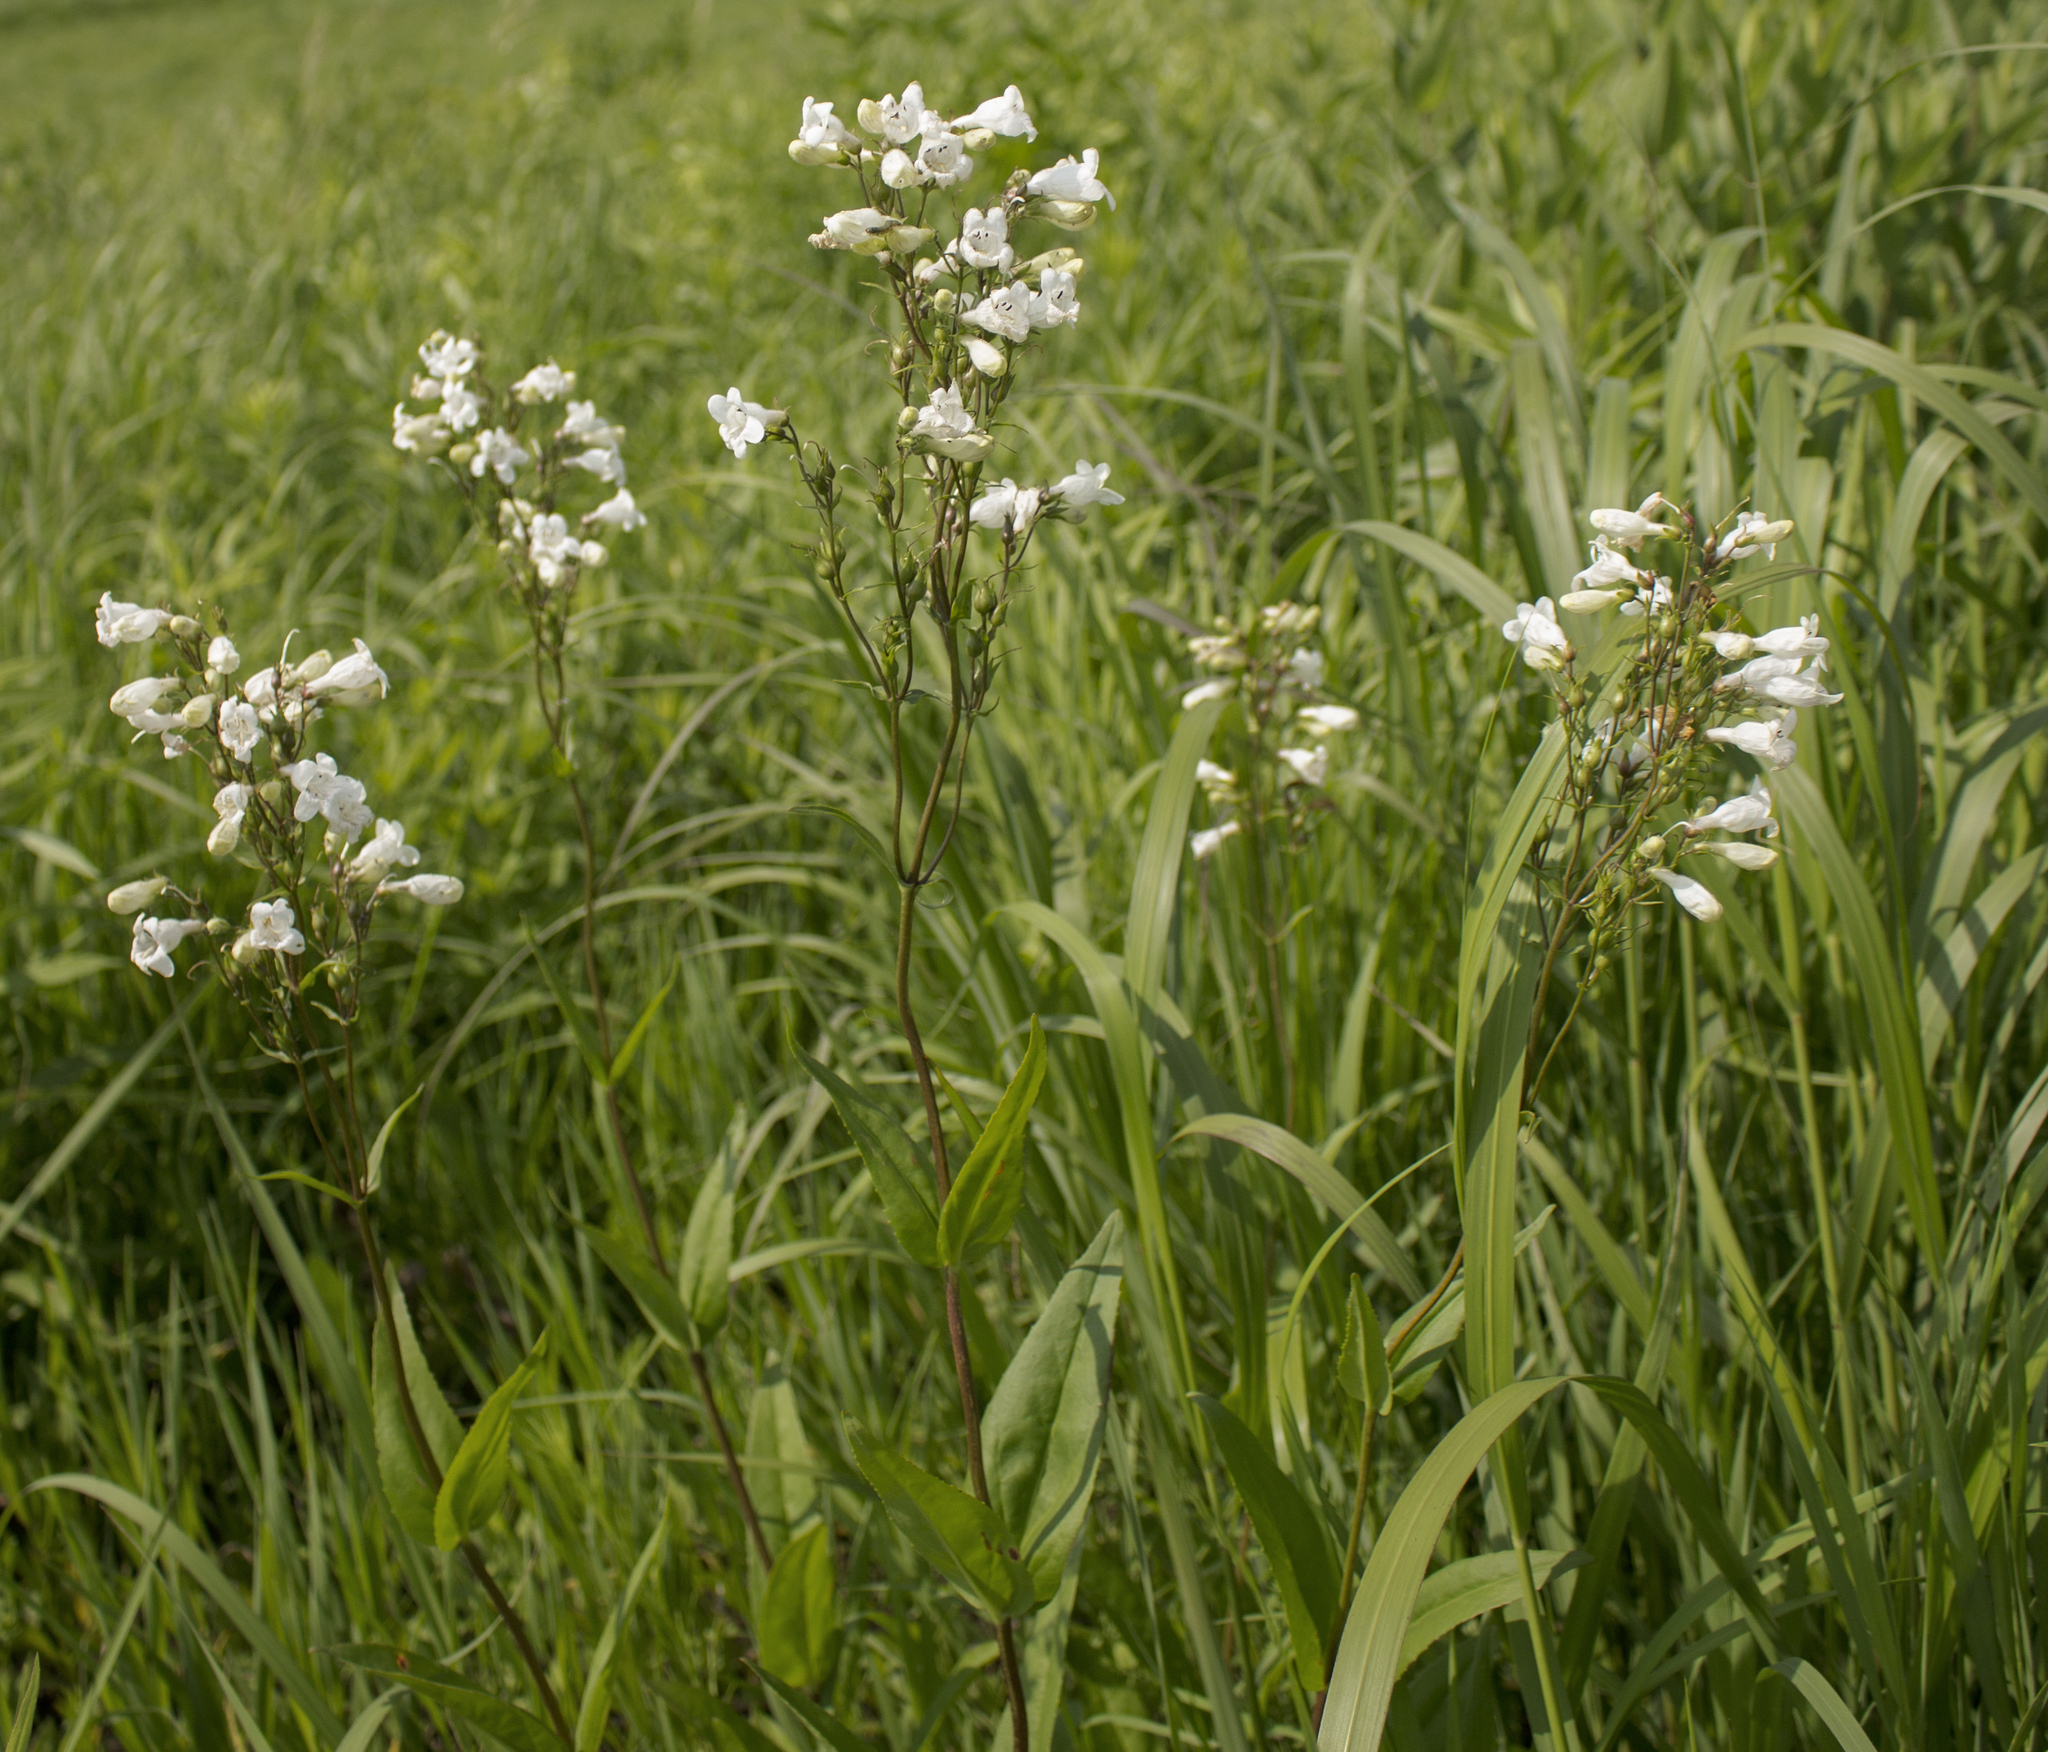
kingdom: Plantae
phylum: Tracheophyta
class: Magnoliopsida
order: Lamiales
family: Plantaginaceae
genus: Penstemon
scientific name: Penstemon digitalis
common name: Foxglove beardtongue
